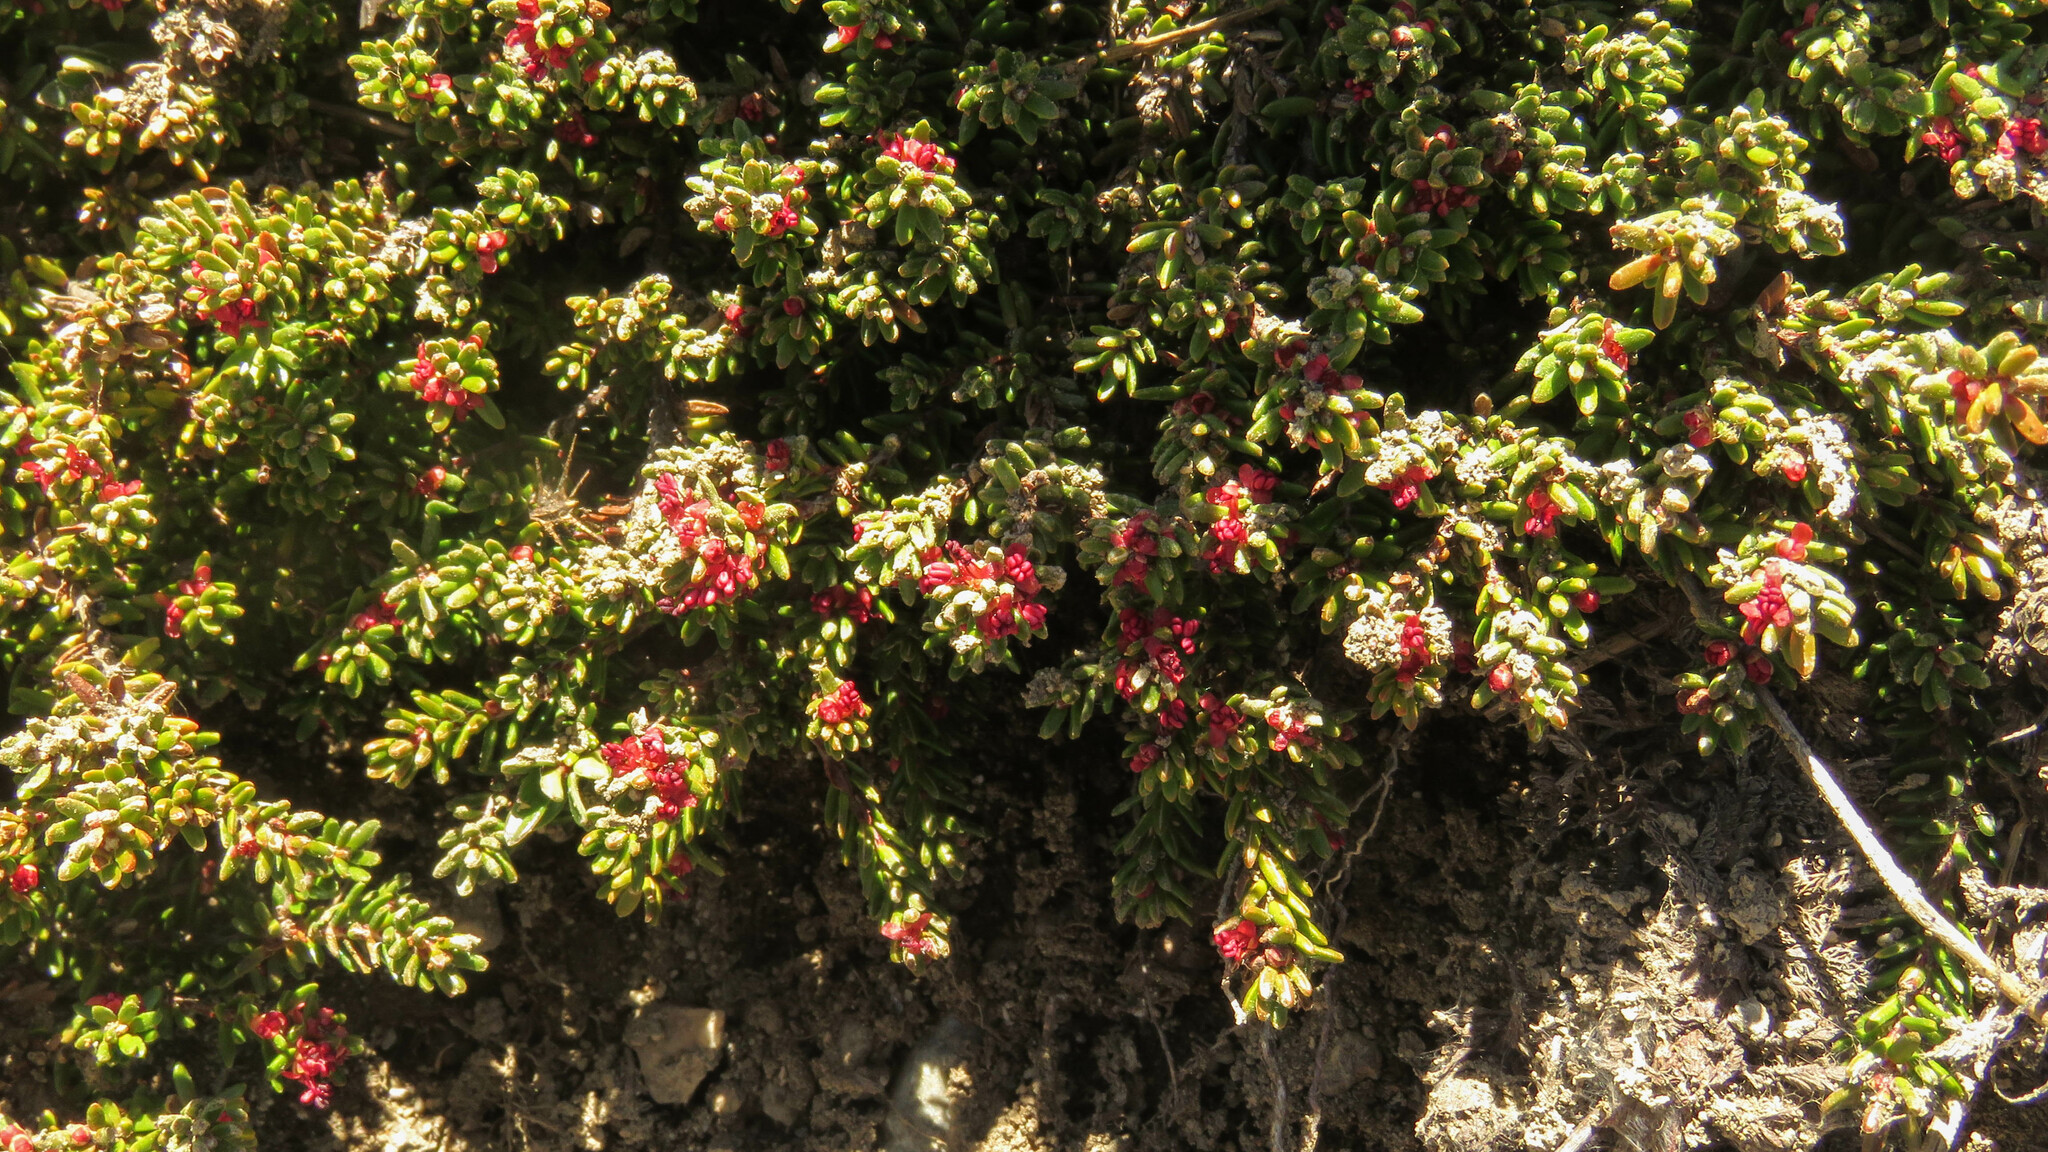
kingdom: Plantae
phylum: Tracheophyta
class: Magnoliopsida
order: Ericales
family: Ericaceae
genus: Empetrum
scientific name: Empetrum rubrum
